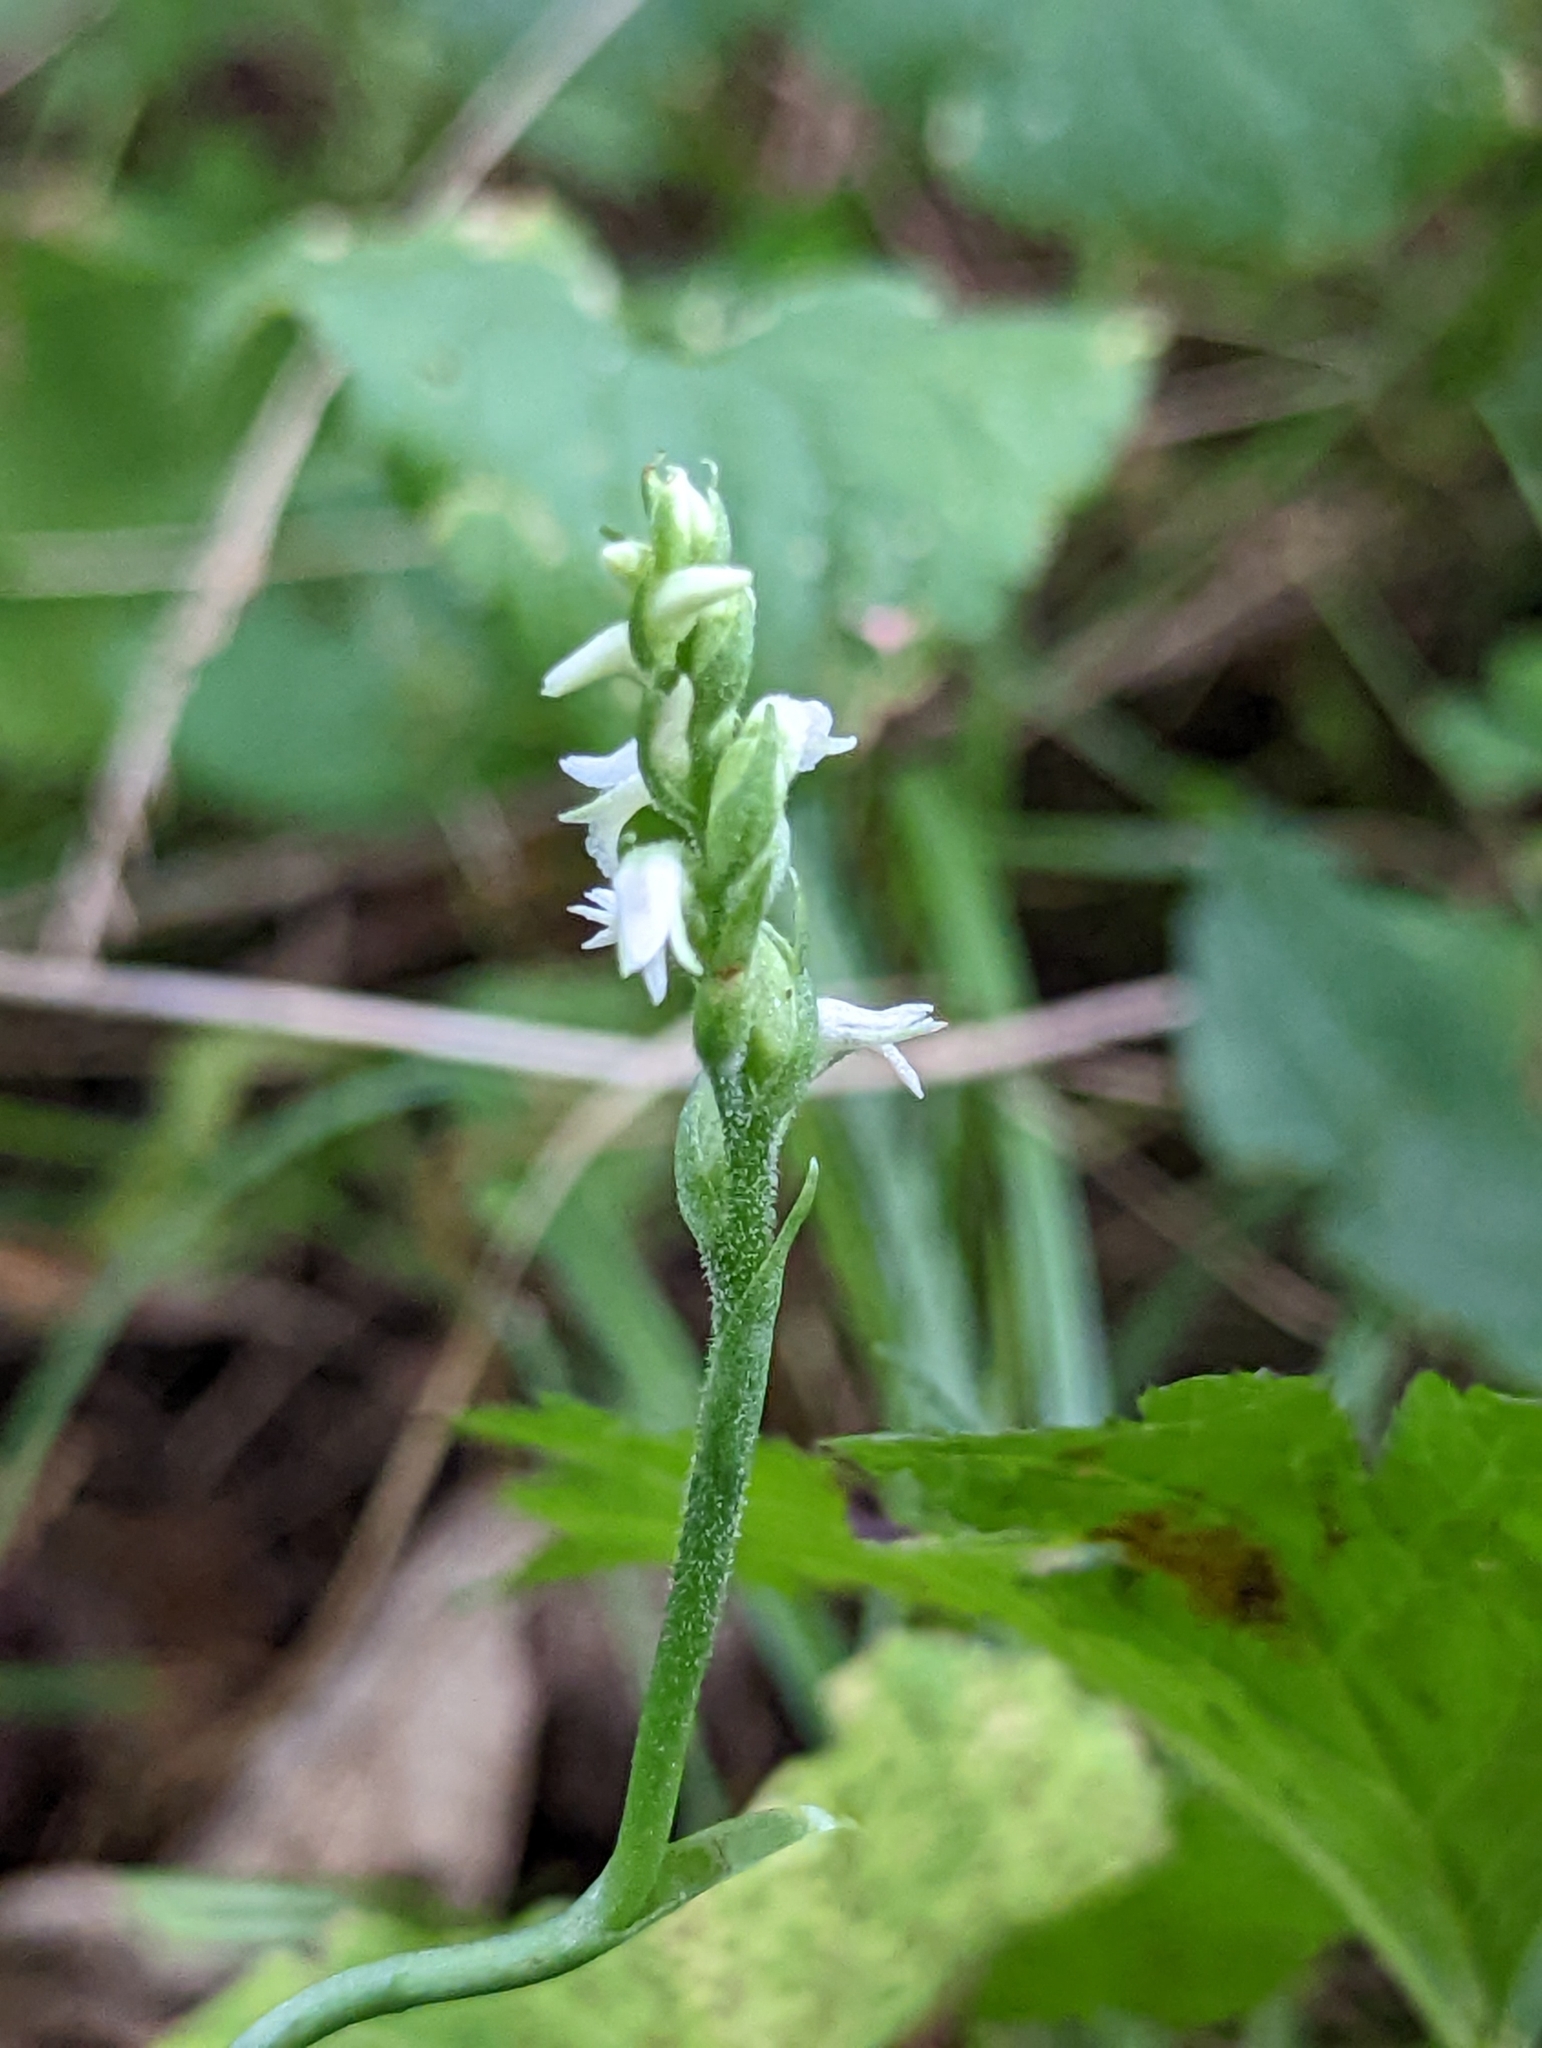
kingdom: Plantae
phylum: Tracheophyta
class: Liliopsida
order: Asparagales
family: Orchidaceae
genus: Spiranthes
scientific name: Spiranthes ovalis
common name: October ladies'-tresses
